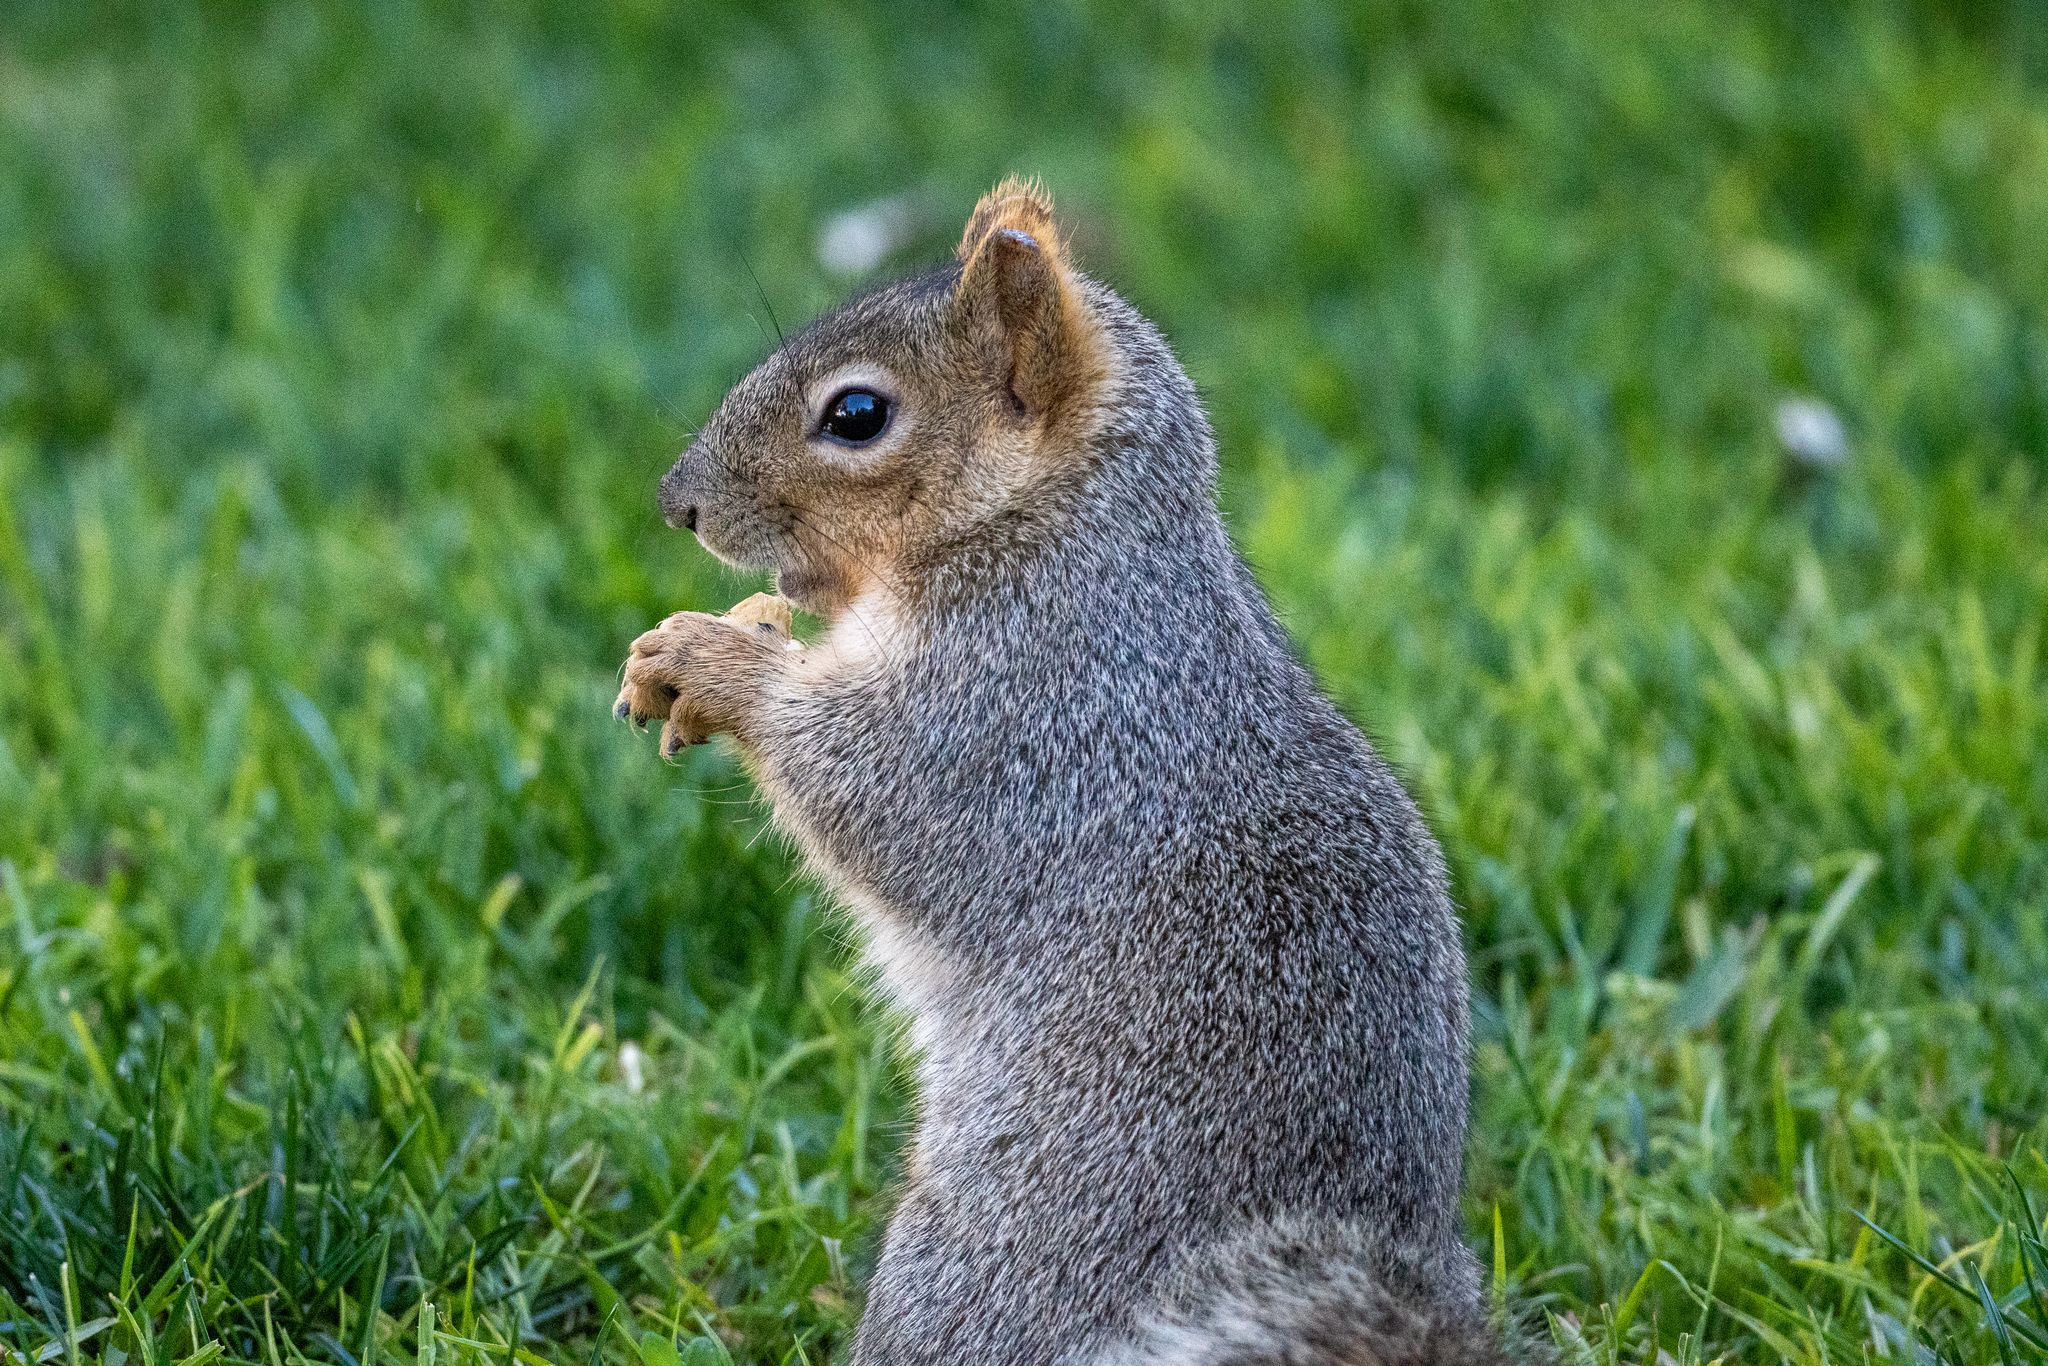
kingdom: Animalia
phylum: Chordata
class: Mammalia
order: Rodentia
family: Sciuridae
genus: Sciurus
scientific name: Sciurus niger
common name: Fox squirrel
